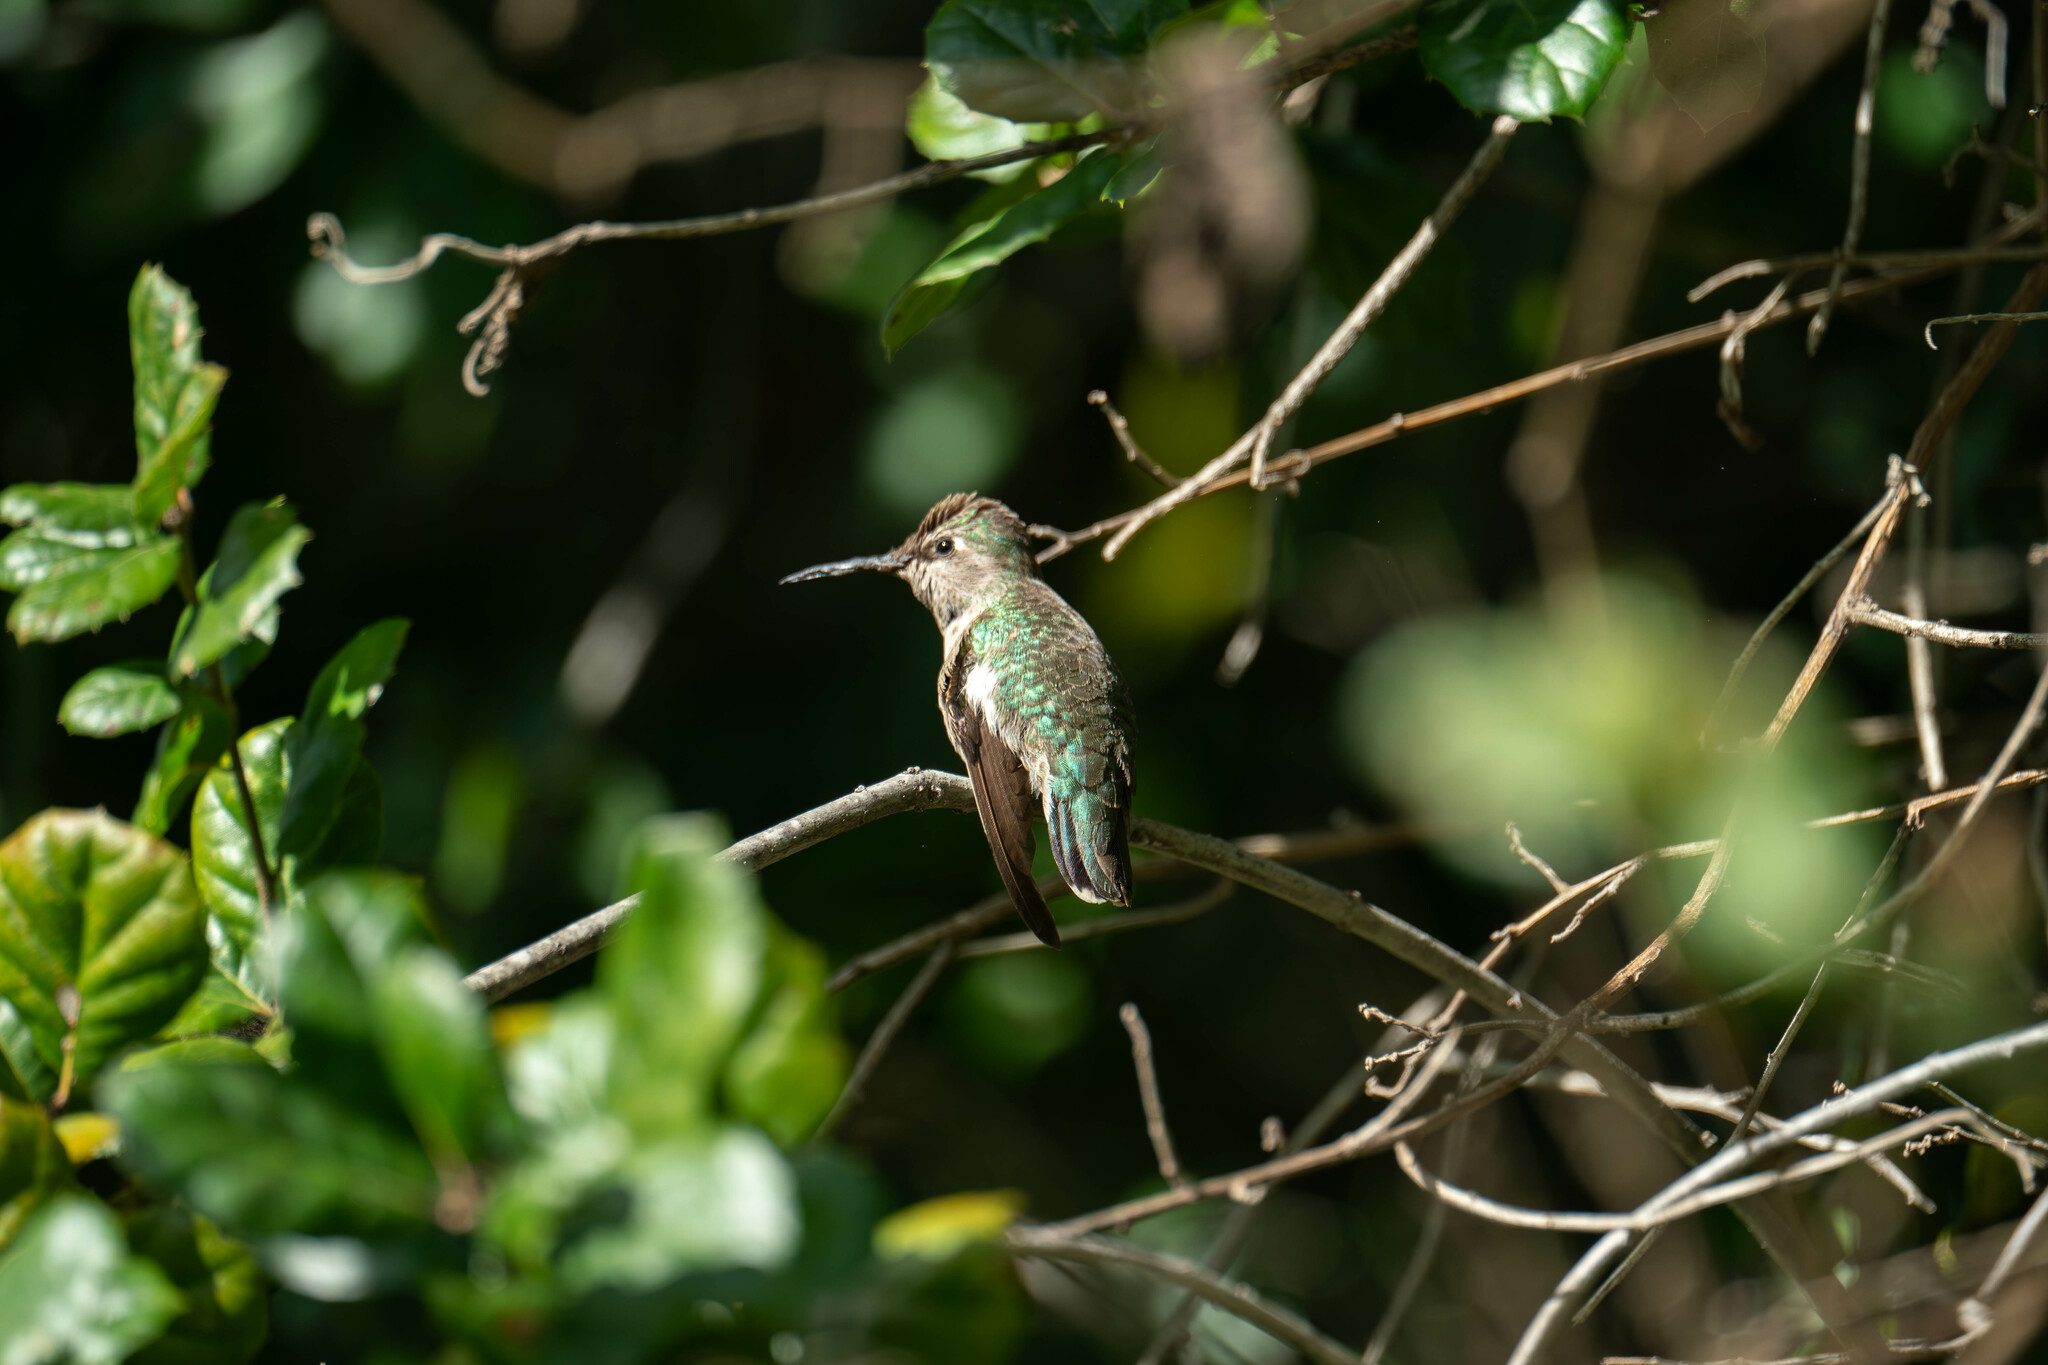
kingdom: Animalia
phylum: Chordata
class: Aves
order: Apodiformes
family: Trochilidae
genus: Calypte
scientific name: Calypte anna
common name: Anna's hummingbird
